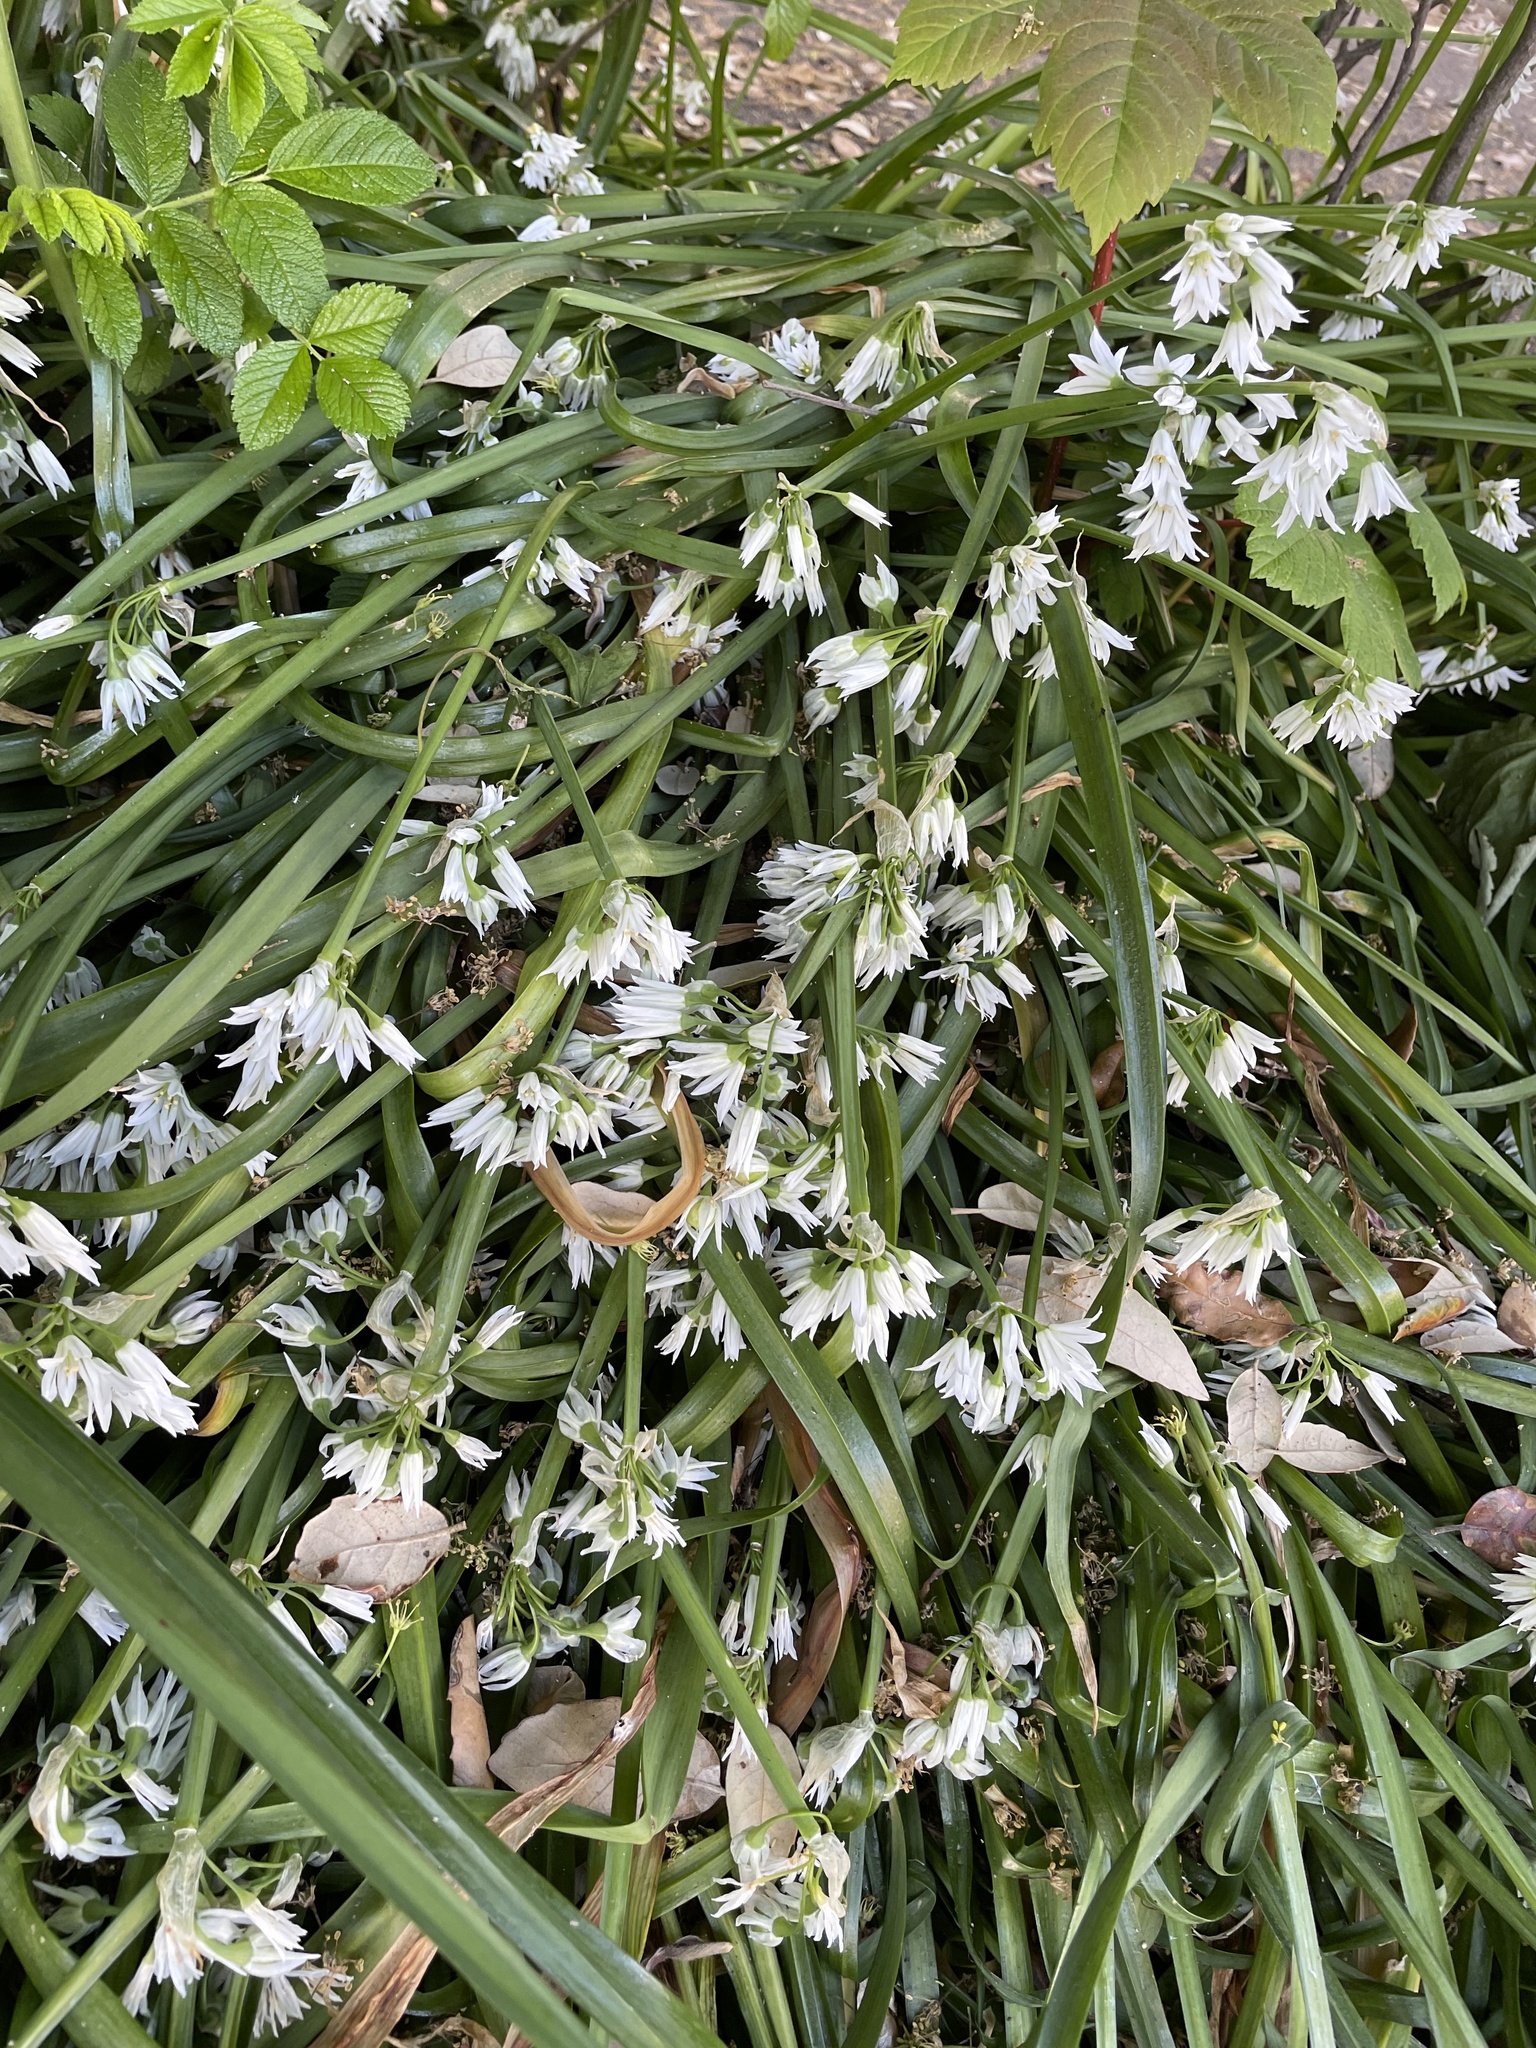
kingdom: Plantae
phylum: Tracheophyta
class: Liliopsida
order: Asparagales
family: Amaryllidaceae
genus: Allium
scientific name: Allium triquetrum
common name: Three-cornered garlic
